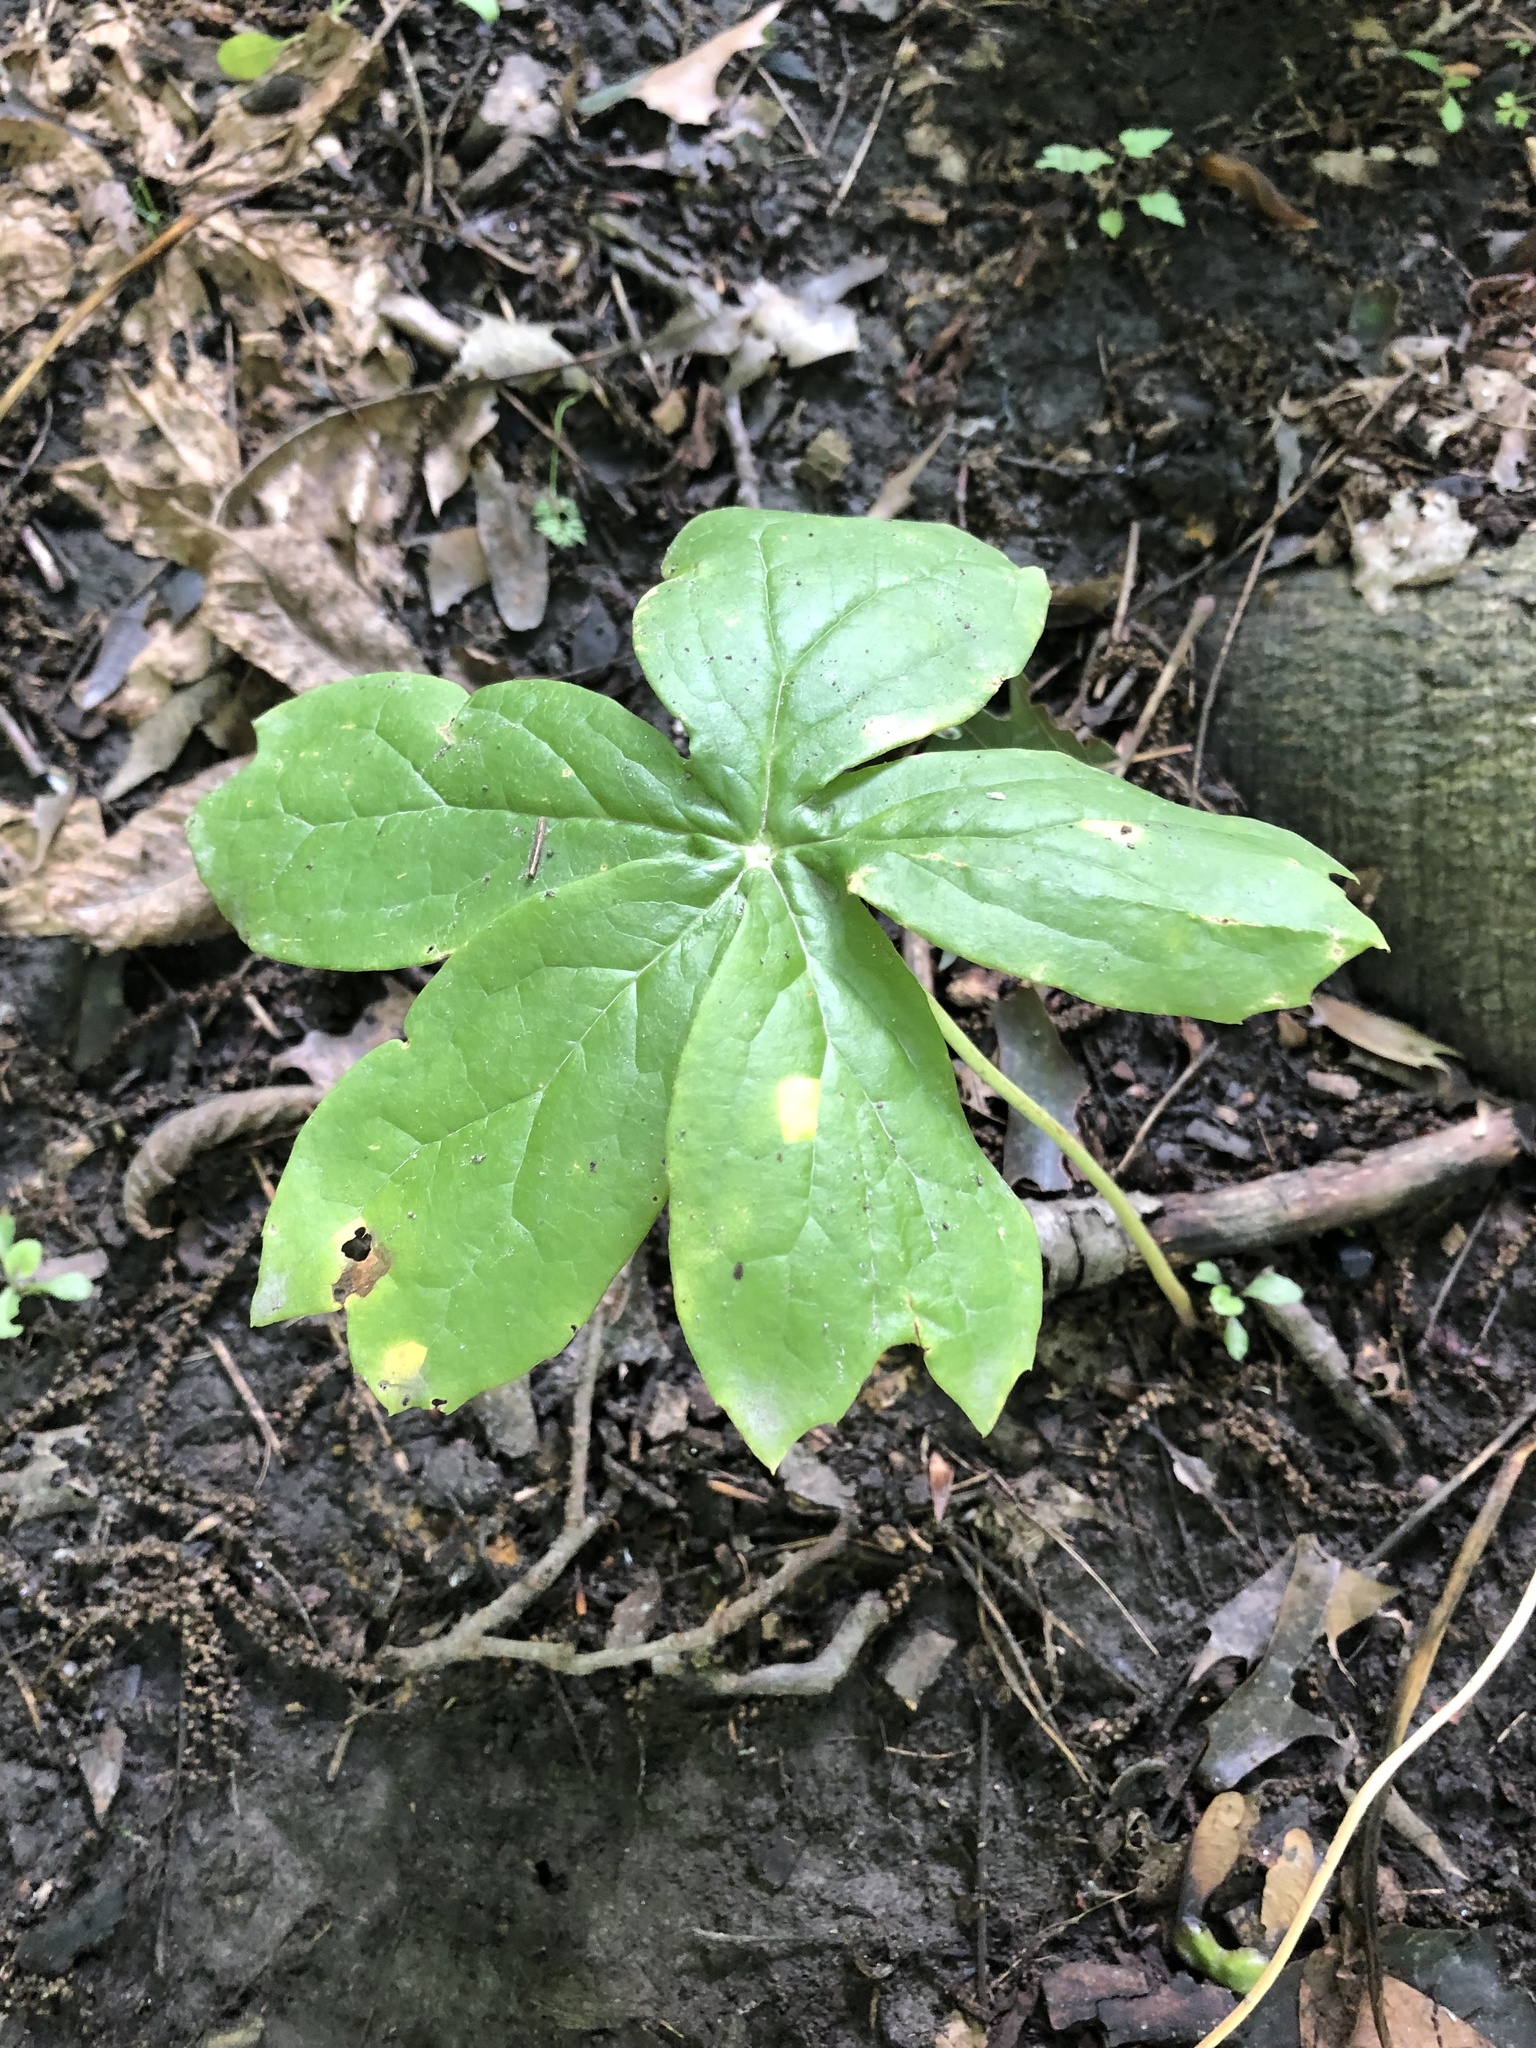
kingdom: Plantae
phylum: Tracheophyta
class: Magnoliopsida
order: Ranunculales
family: Berberidaceae
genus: Podophyllum
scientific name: Podophyllum peltatum
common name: Wild mandrake
